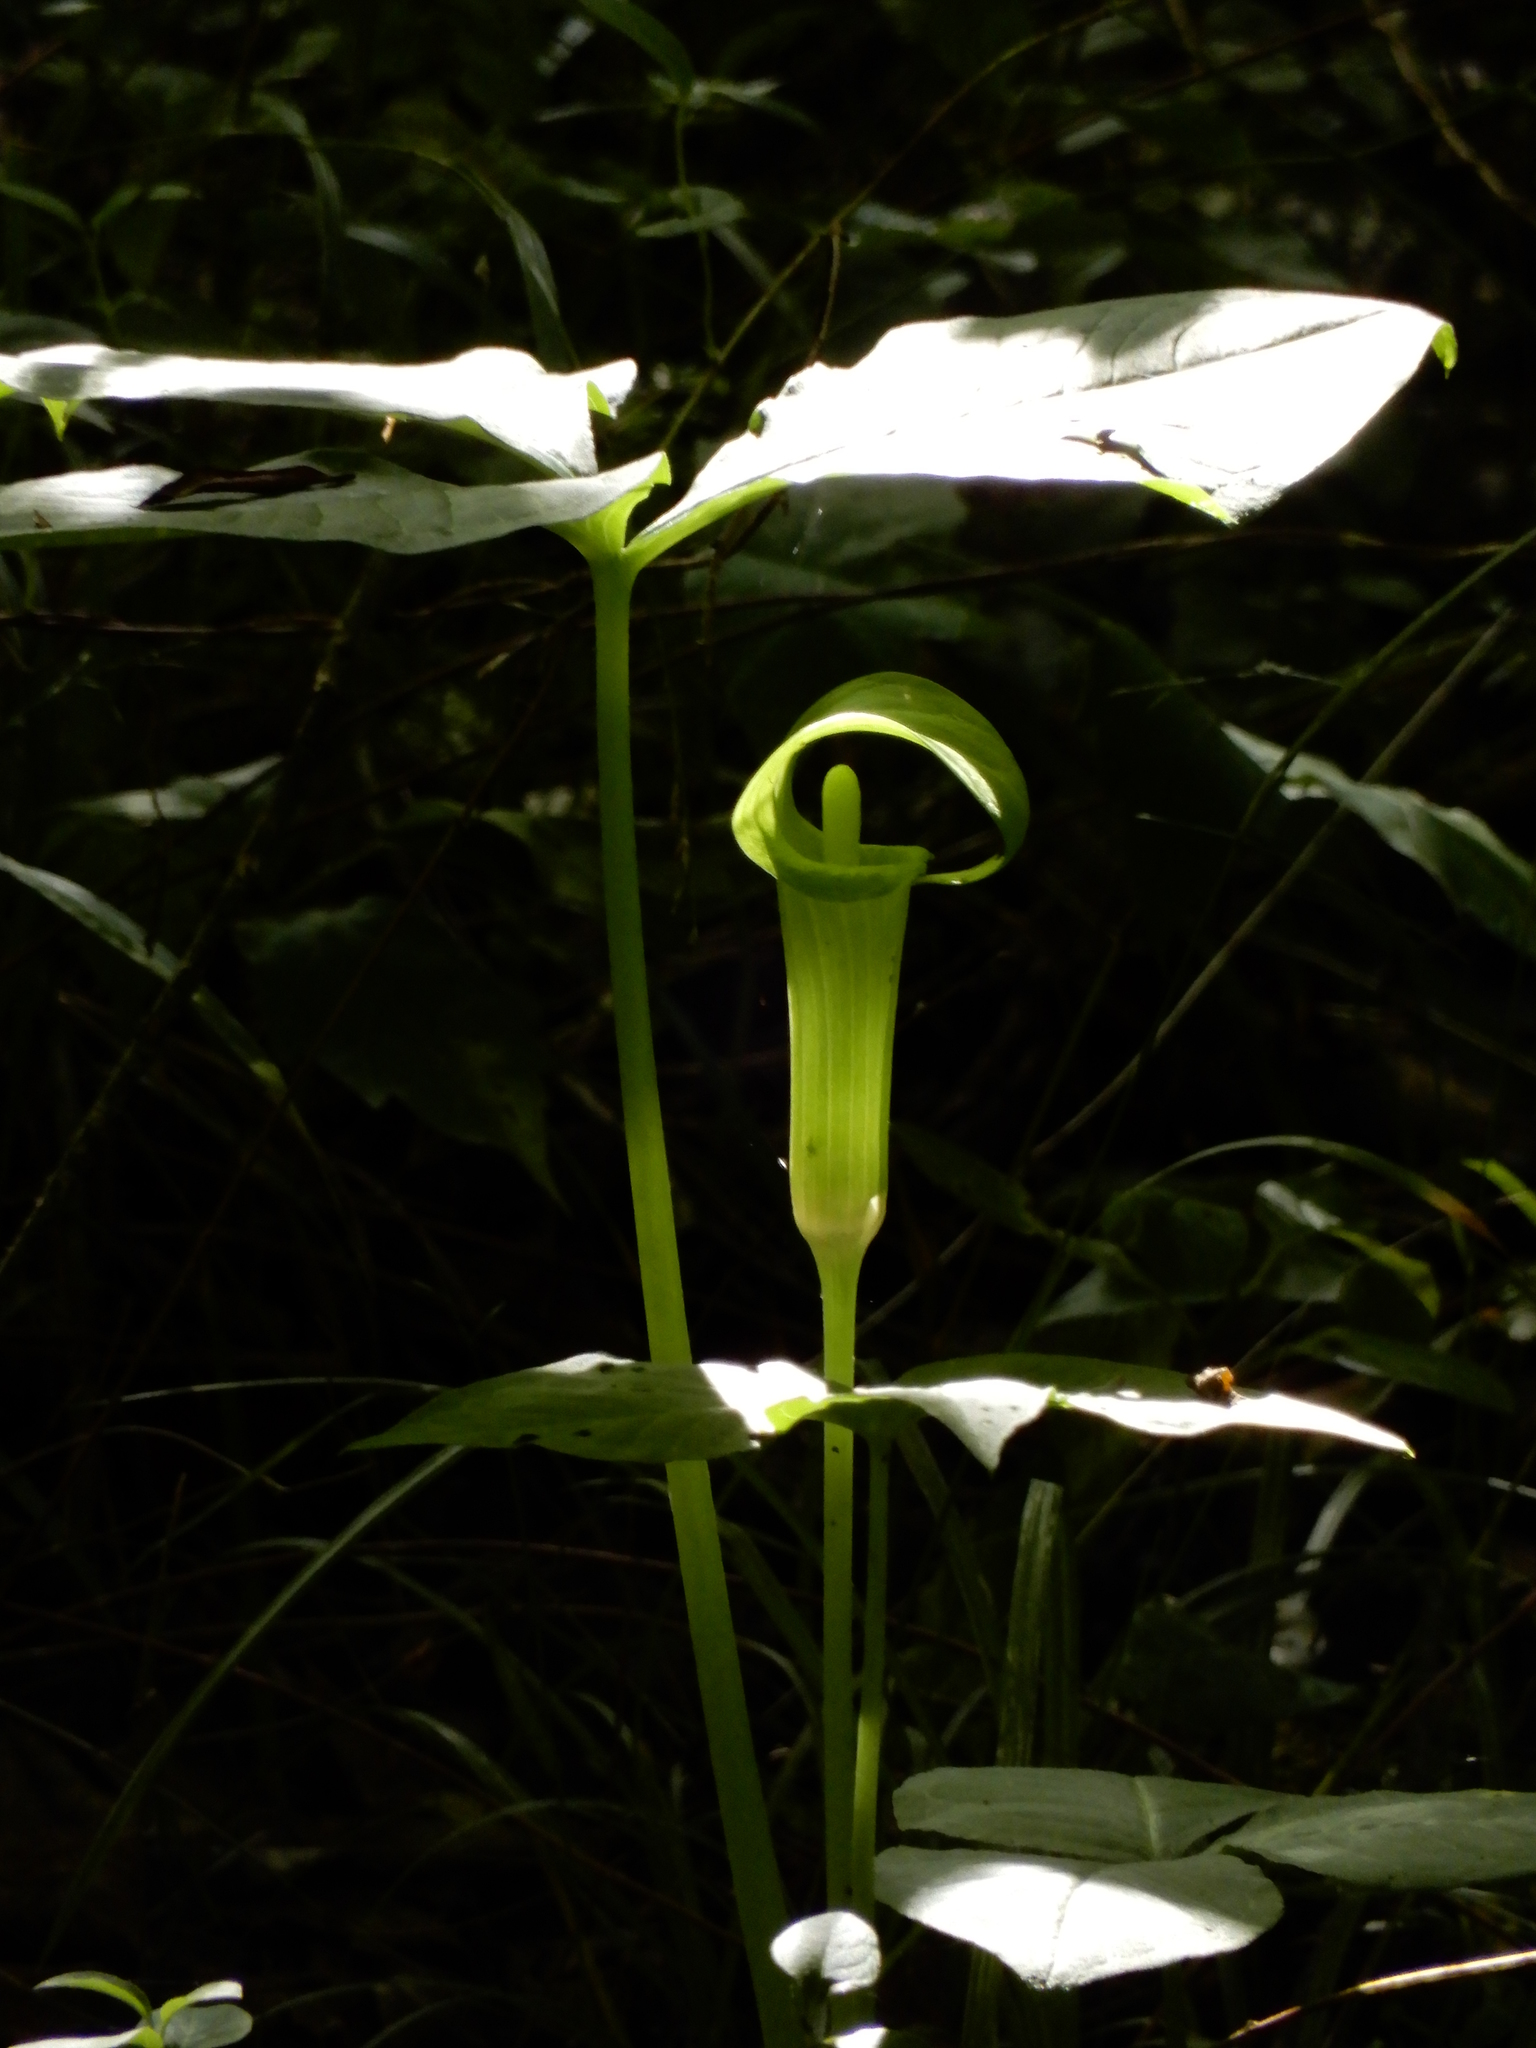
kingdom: Plantae
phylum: Tracheophyta
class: Liliopsida
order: Alismatales
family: Araceae
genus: Arisaema
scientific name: Arisaema triphyllum
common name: Jack-in-the-pulpit
